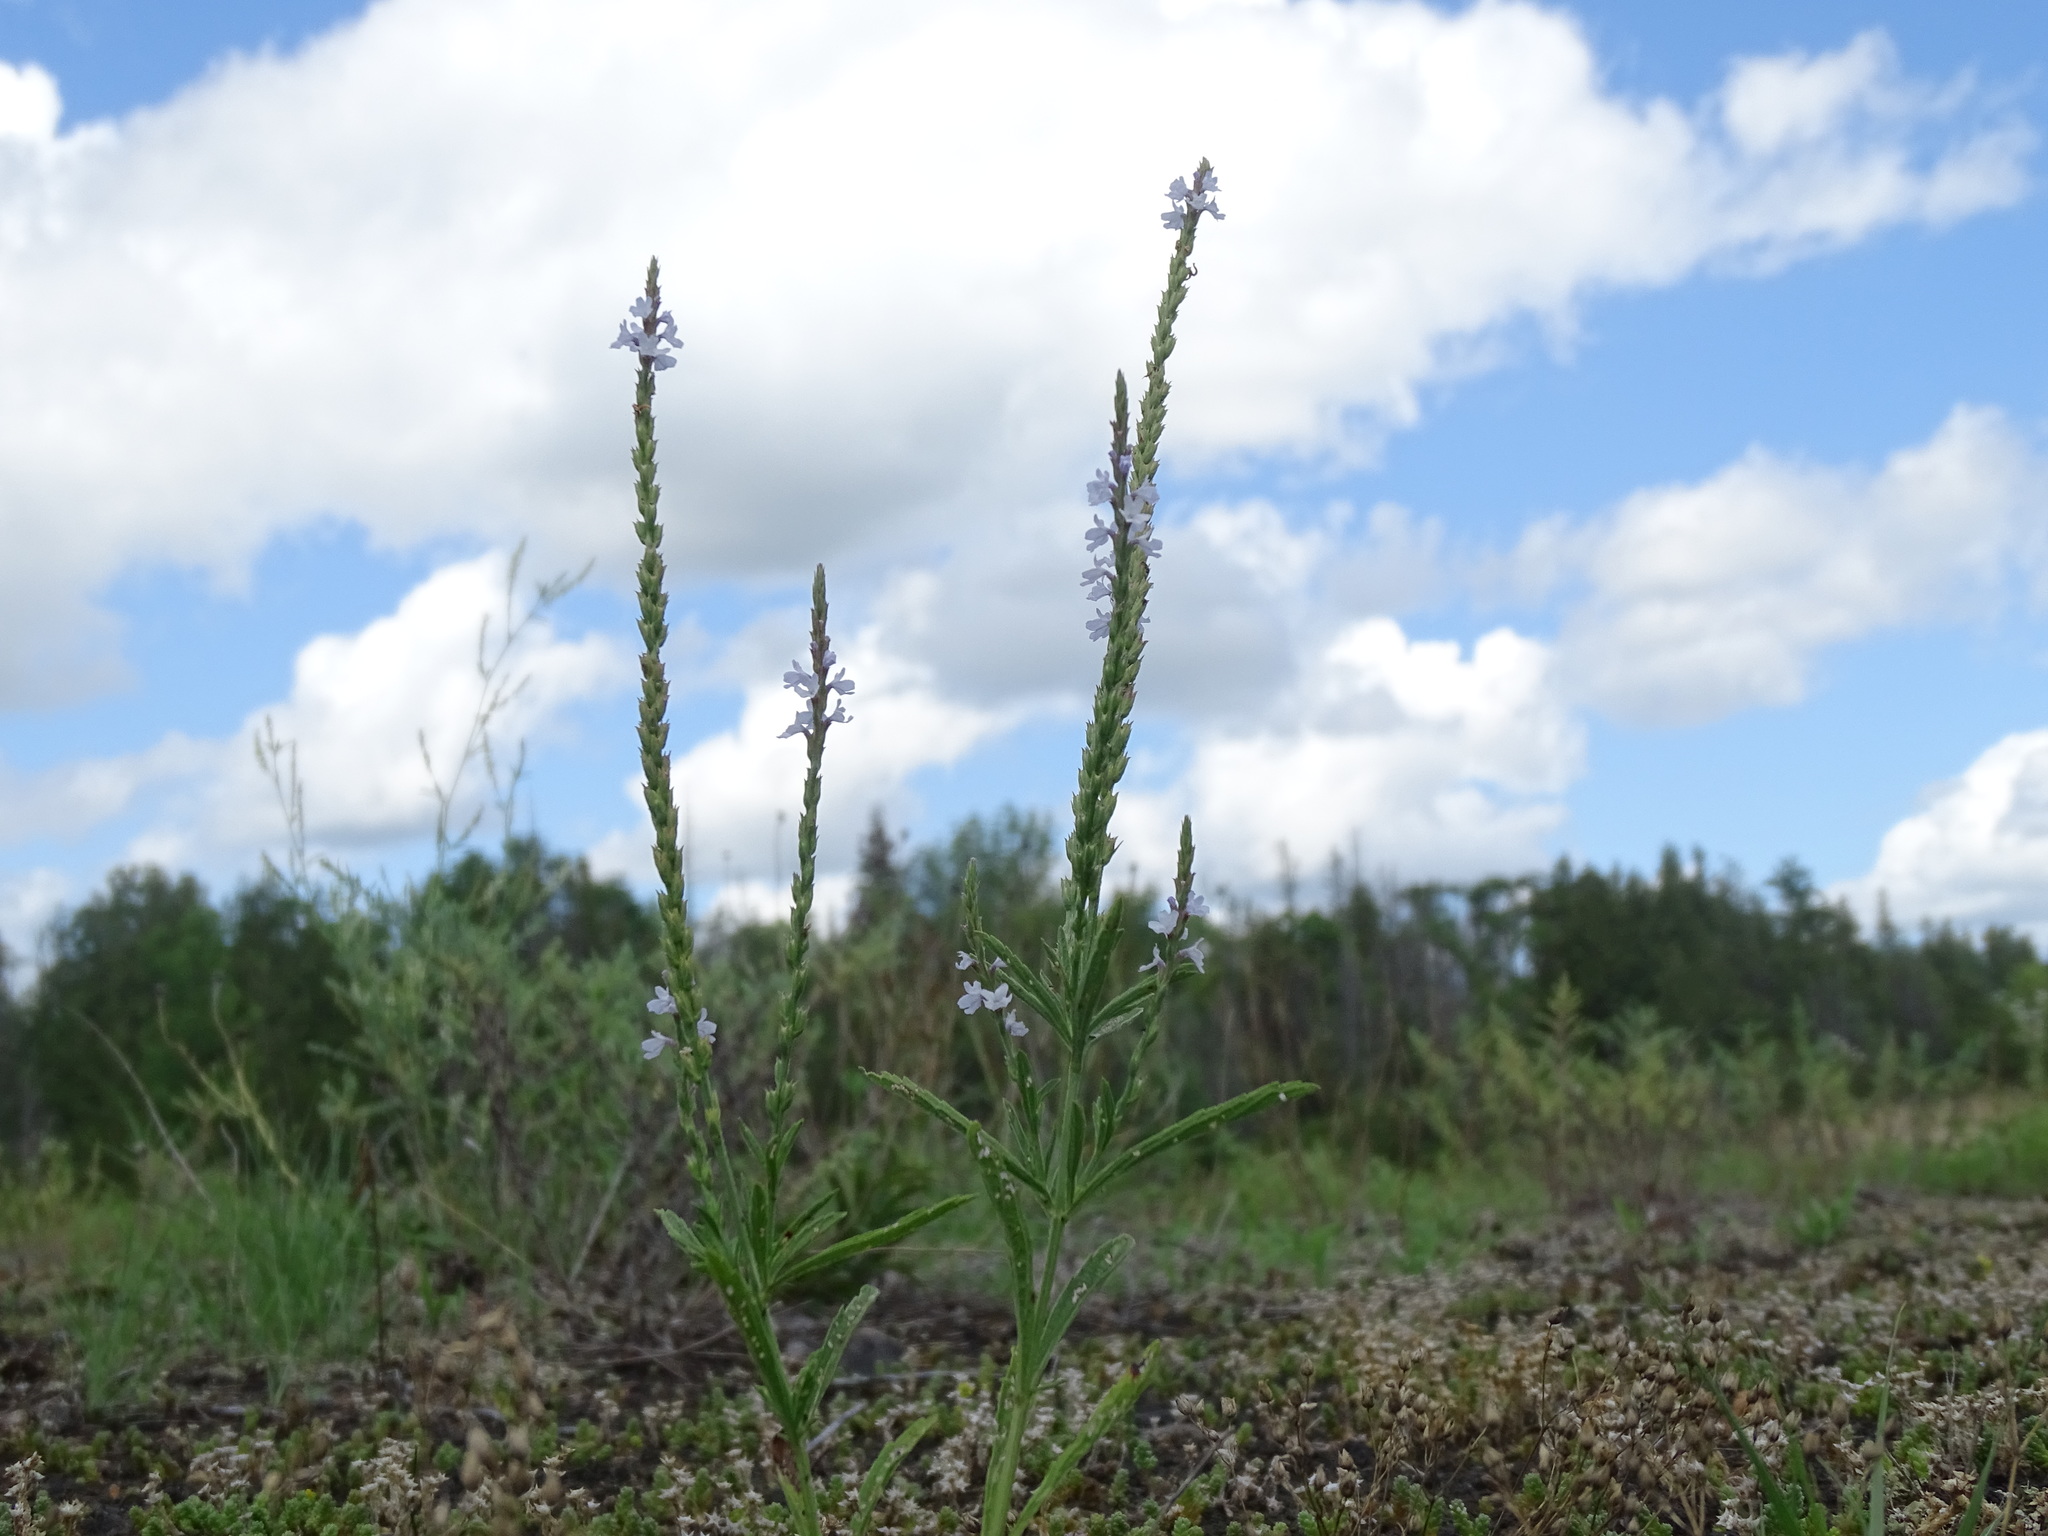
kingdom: Plantae
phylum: Tracheophyta
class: Magnoliopsida
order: Lamiales
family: Verbenaceae
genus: Verbena
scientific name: Verbena simplex
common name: Narrow-leaf vervain
